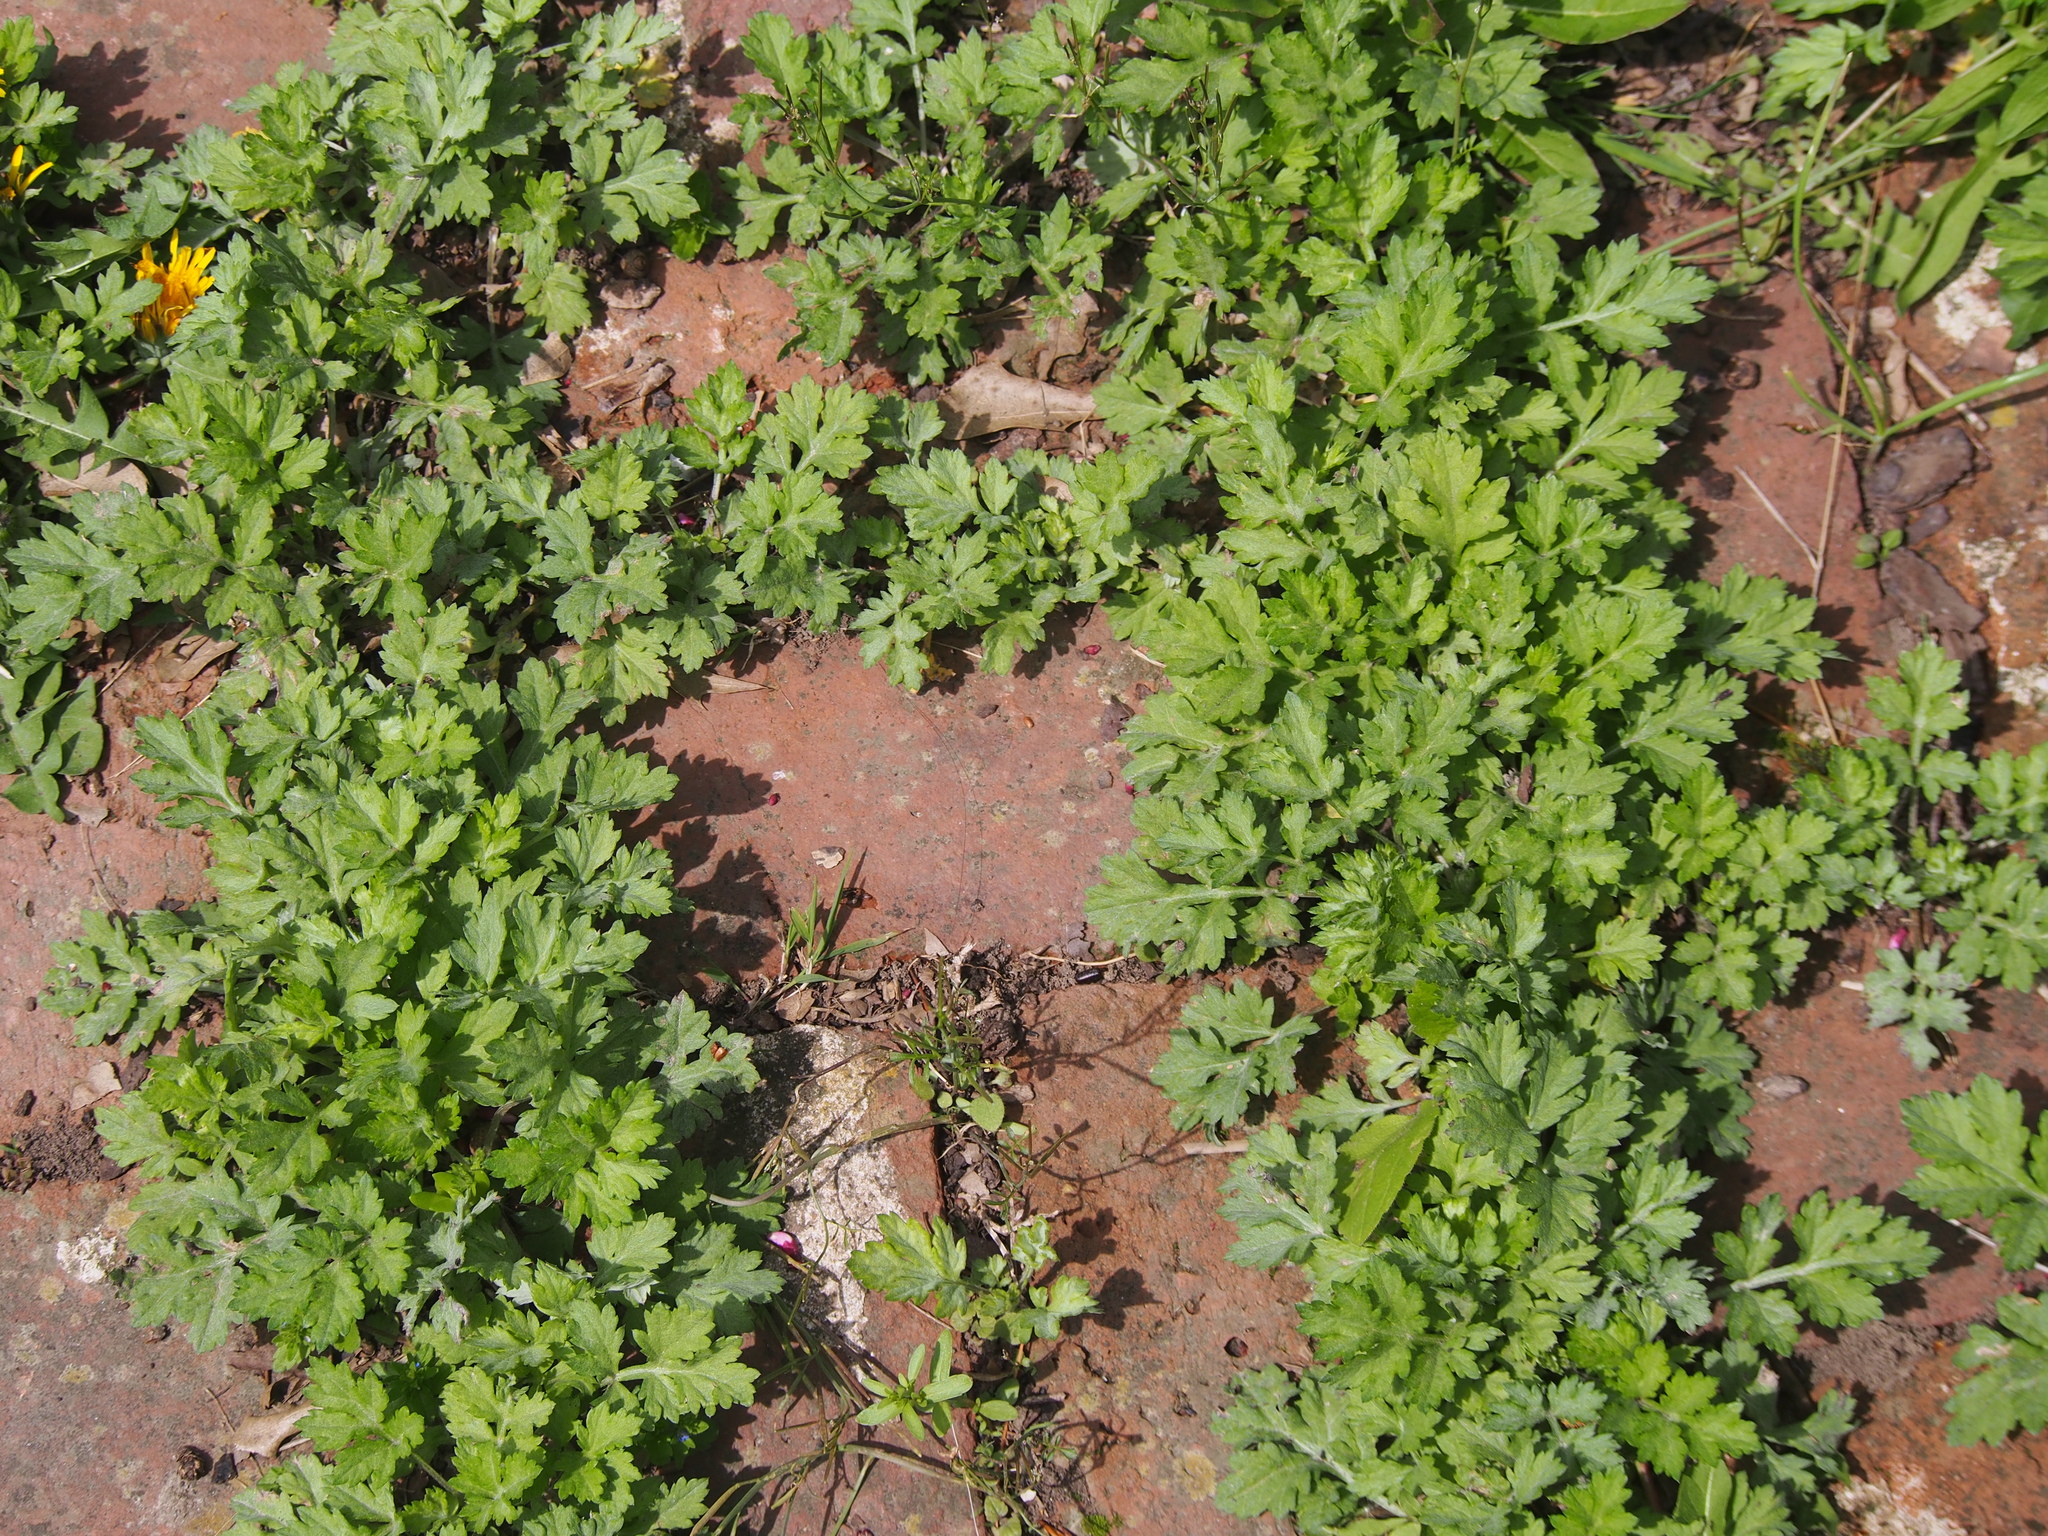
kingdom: Plantae
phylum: Tracheophyta
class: Magnoliopsida
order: Asterales
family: Asteraceae
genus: Artemisia
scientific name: Artemisia vulgaris
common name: Mugwort
